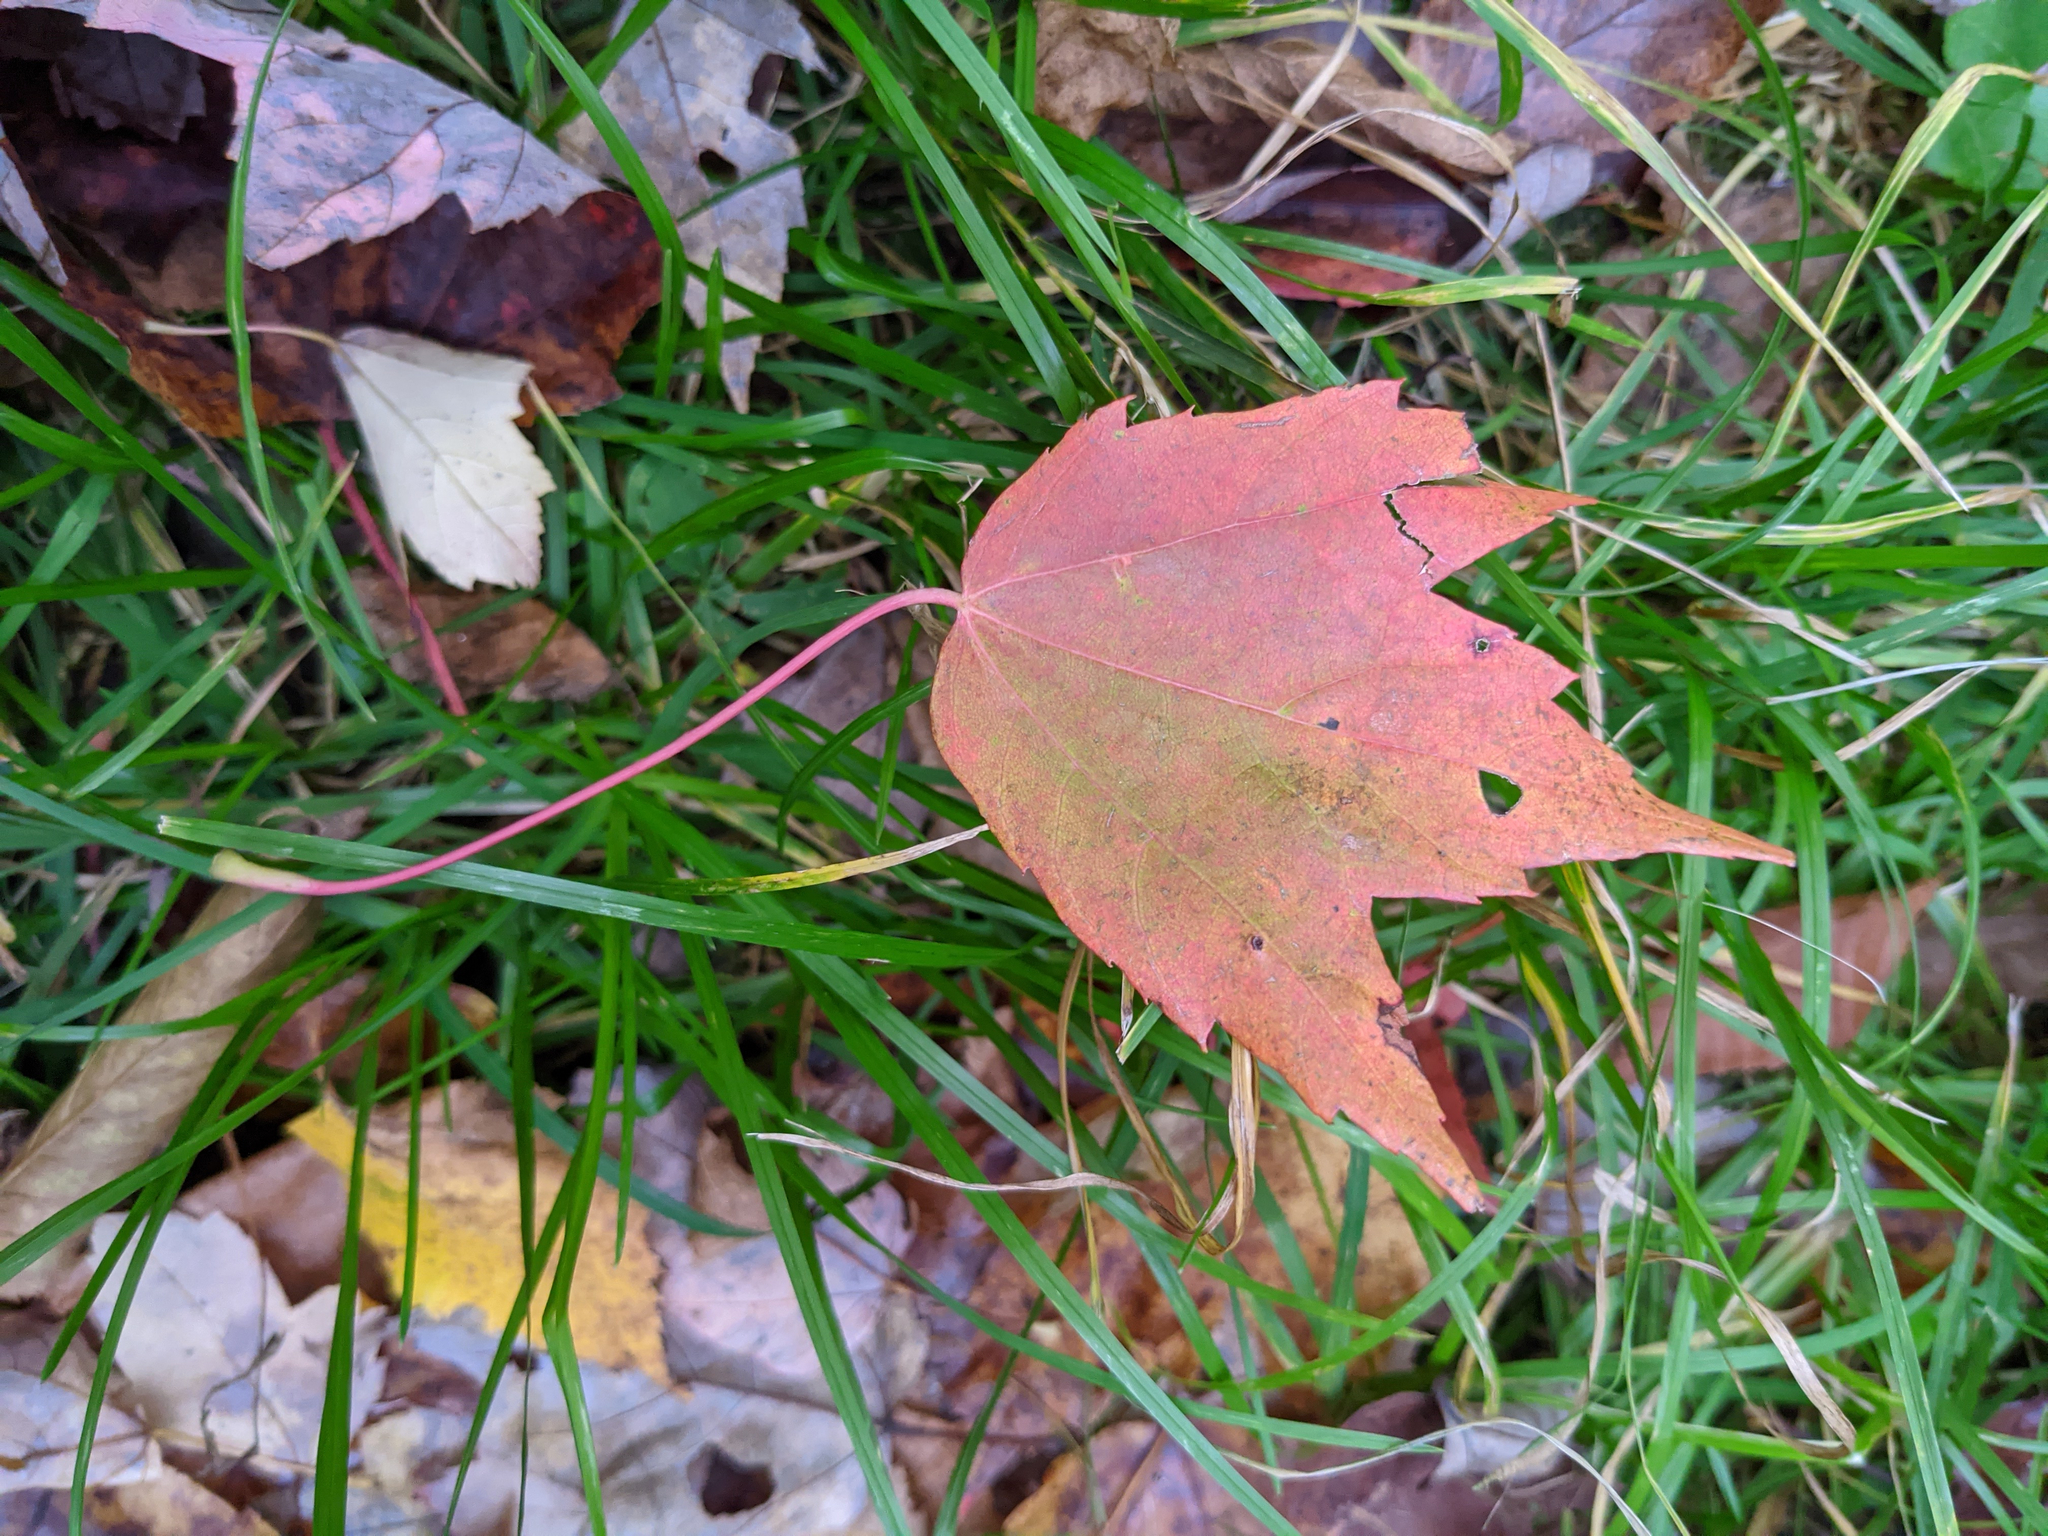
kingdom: Plantae
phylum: Tracheophyta
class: Magnoliopsida
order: Sapindales
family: Sapindaceae
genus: Acer
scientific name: Acer rubrum
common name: Red maple
